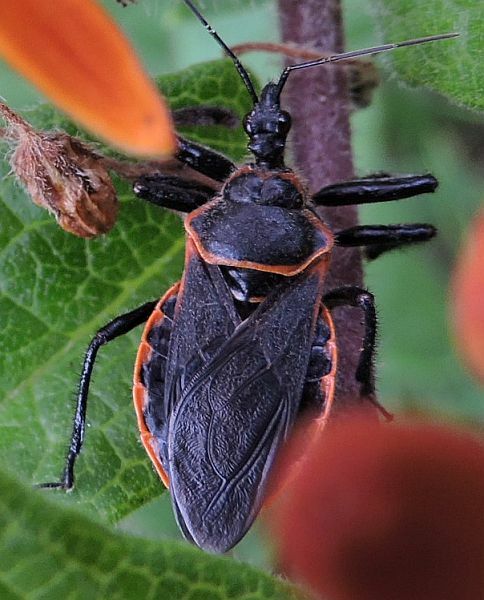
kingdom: Animalia
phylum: Arthropoda
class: Insecta
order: Hemiptera
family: Reduviidae
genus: Apiomerus
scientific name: Apiomerus crassipes
